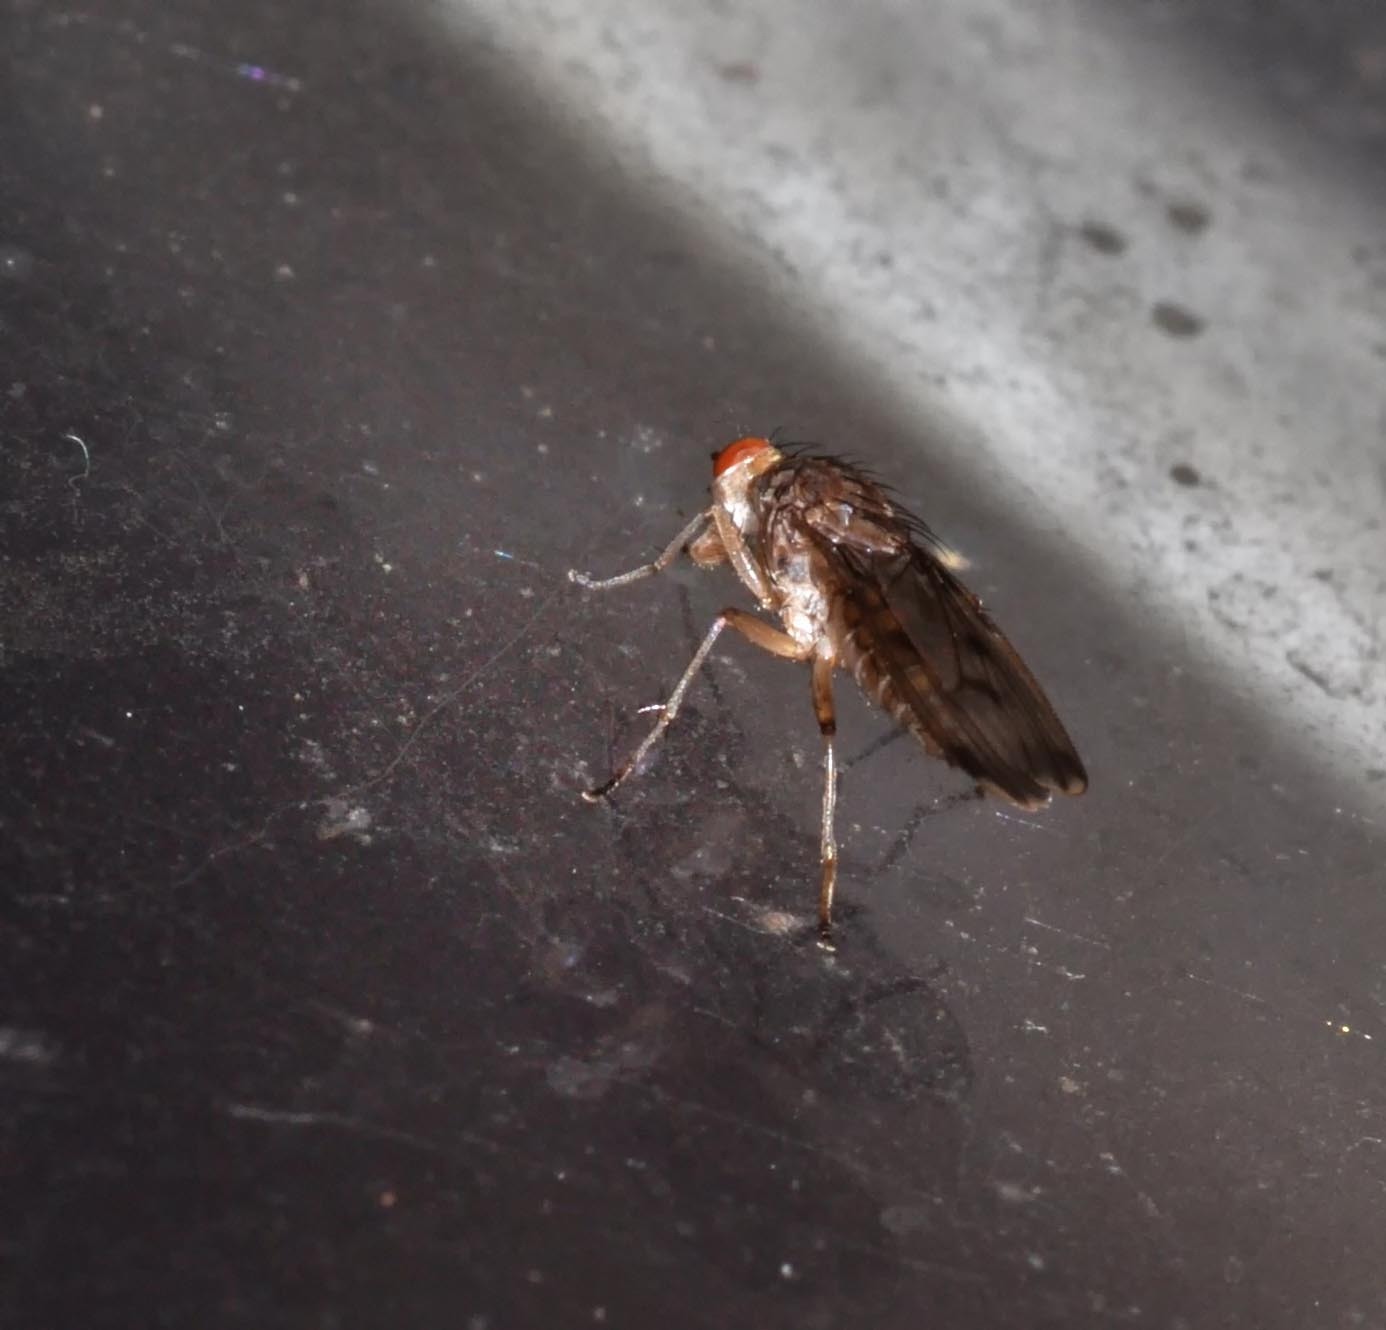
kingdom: Animalia
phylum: Arthropoda
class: Insecta
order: Diptera
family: Heleomyzidae
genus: Suillia
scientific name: Suillia variegata
